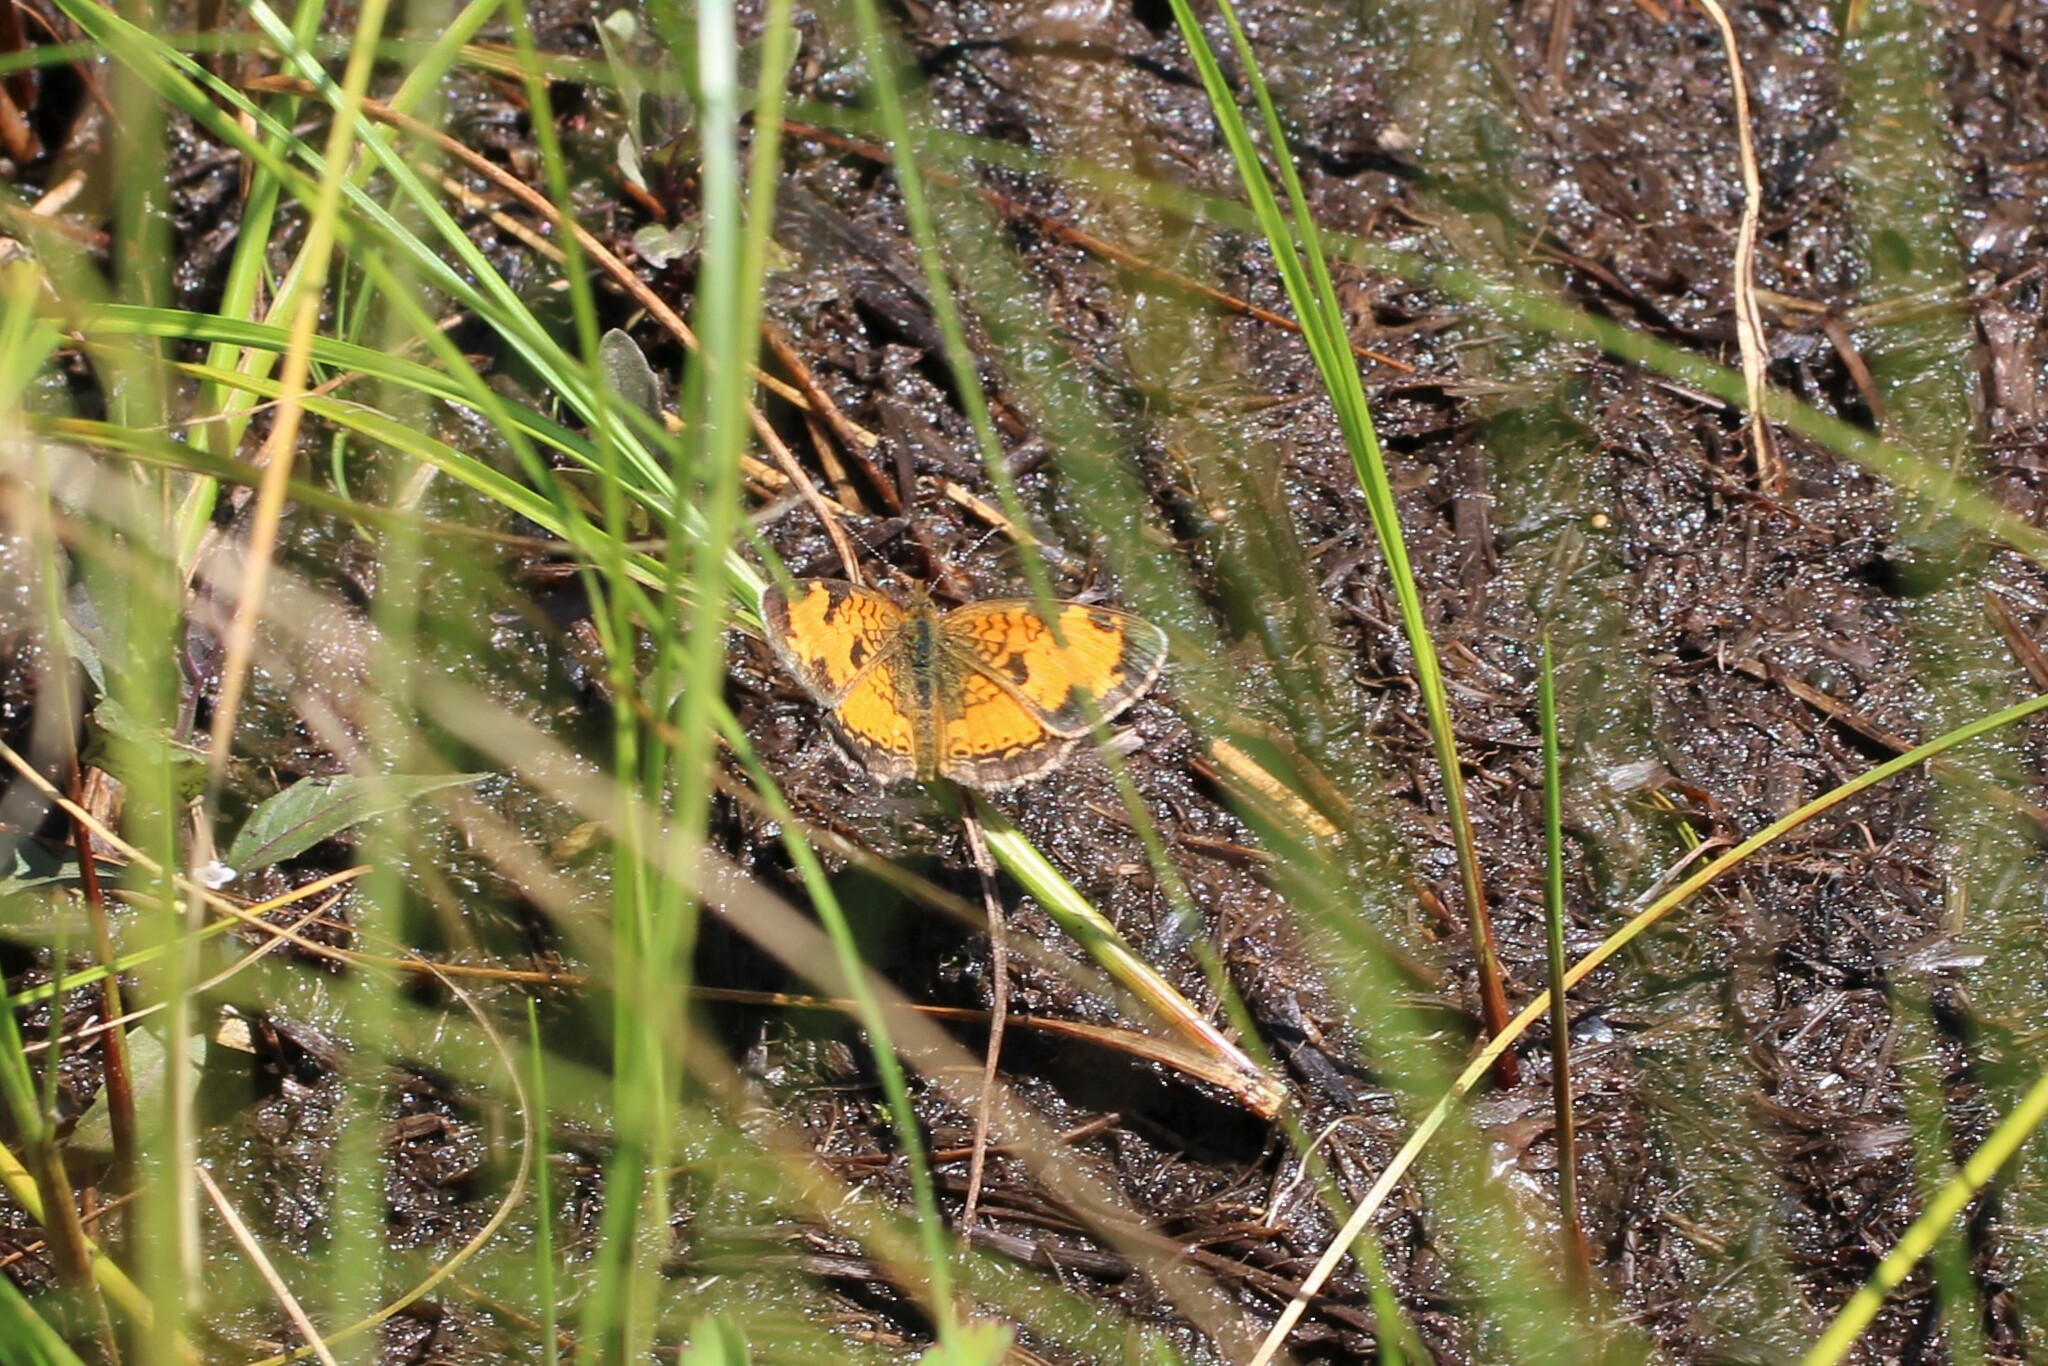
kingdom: Animalia
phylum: Arthropoda
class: Insecta
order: Lepidoptera
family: Nymphalidae
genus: Phyciodes
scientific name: Phyciodes tharos
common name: Pearl crescent
